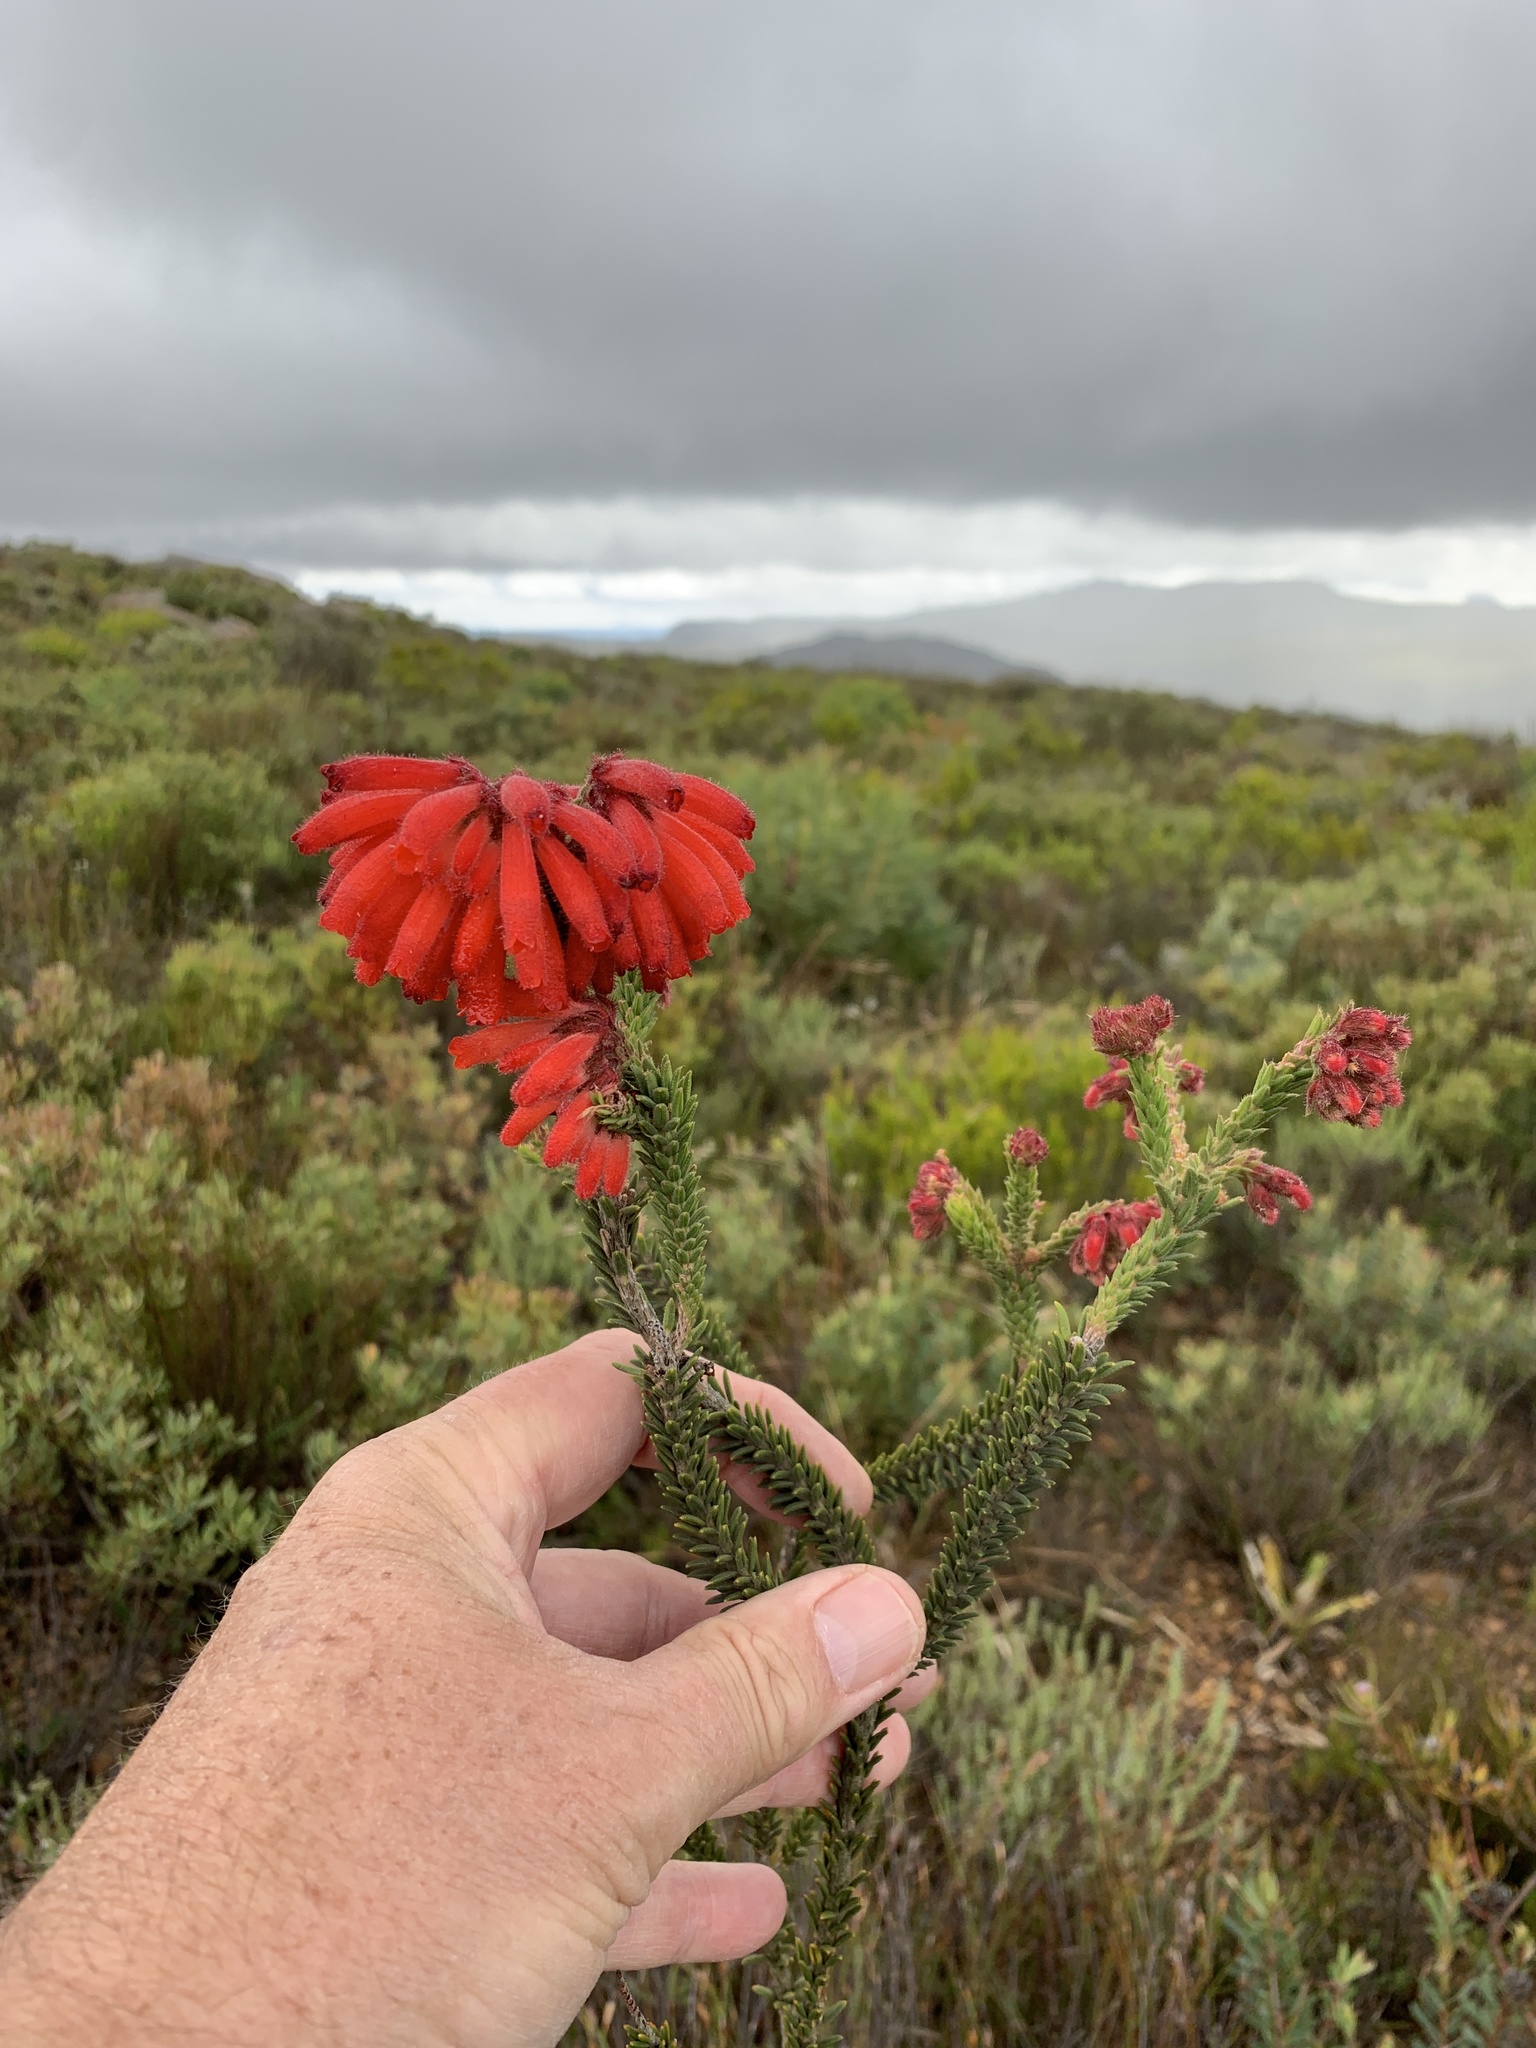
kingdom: Plantae
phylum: Tracheophyta
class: Magnoliopsida
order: Ericales
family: Ericaceae
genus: Erica
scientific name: Erica cerinthoides
